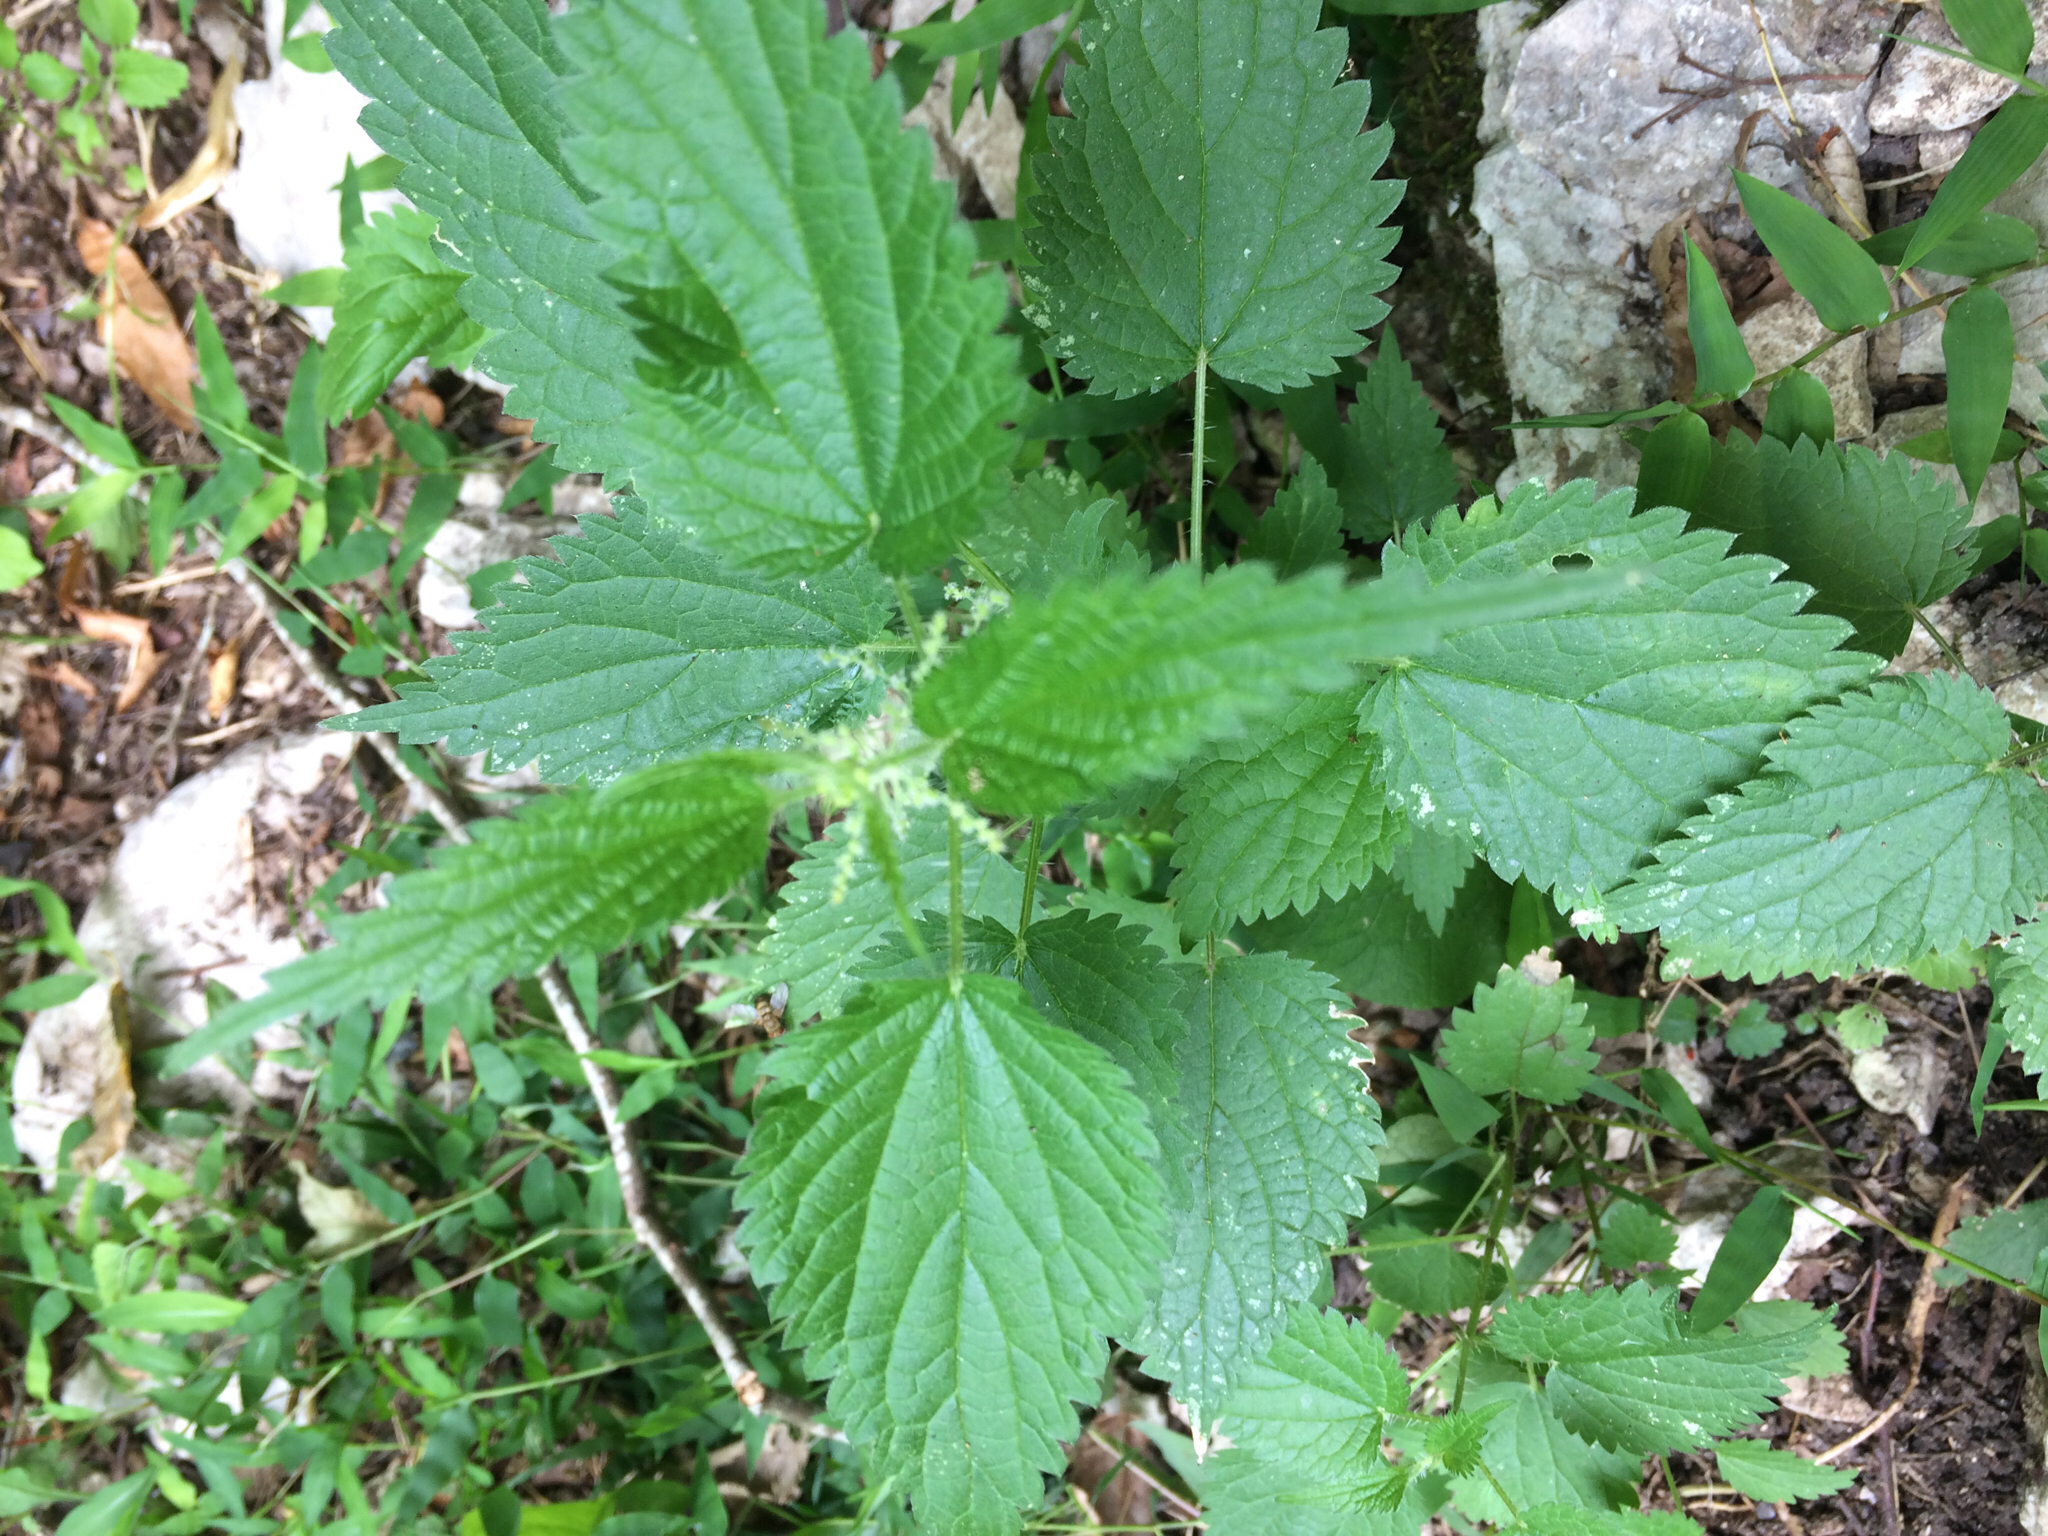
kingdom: Plantae
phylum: Tracheophyta
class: Magnoliopsida
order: Rosales
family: Urticaceae
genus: Urtica
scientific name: Urtica dioica
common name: Common nettle
